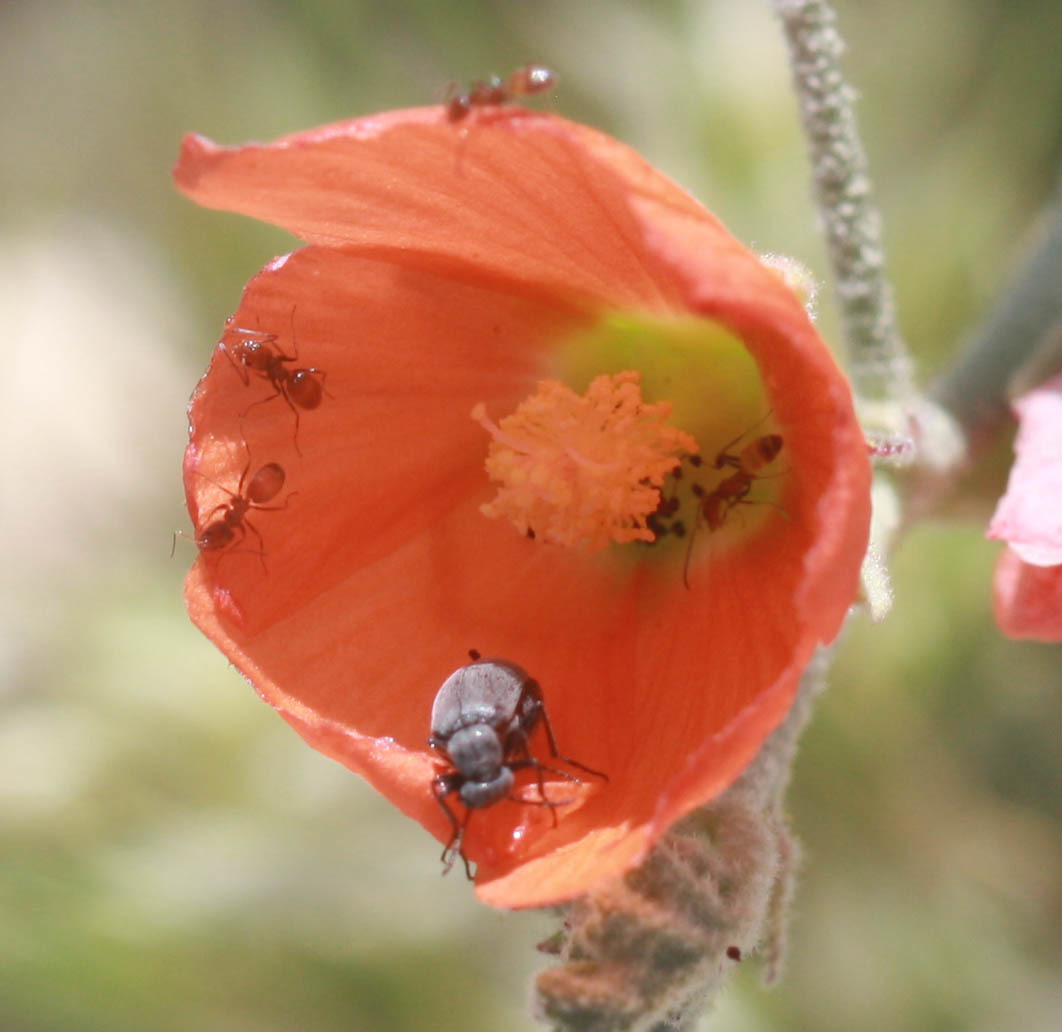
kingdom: Plantae
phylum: Tracheophyta
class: Magnoliopsida
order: Malvales
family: Malvaceae
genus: Sphaeralcea
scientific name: Sphaeralcea ambigua
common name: Apricot globe-mallow
